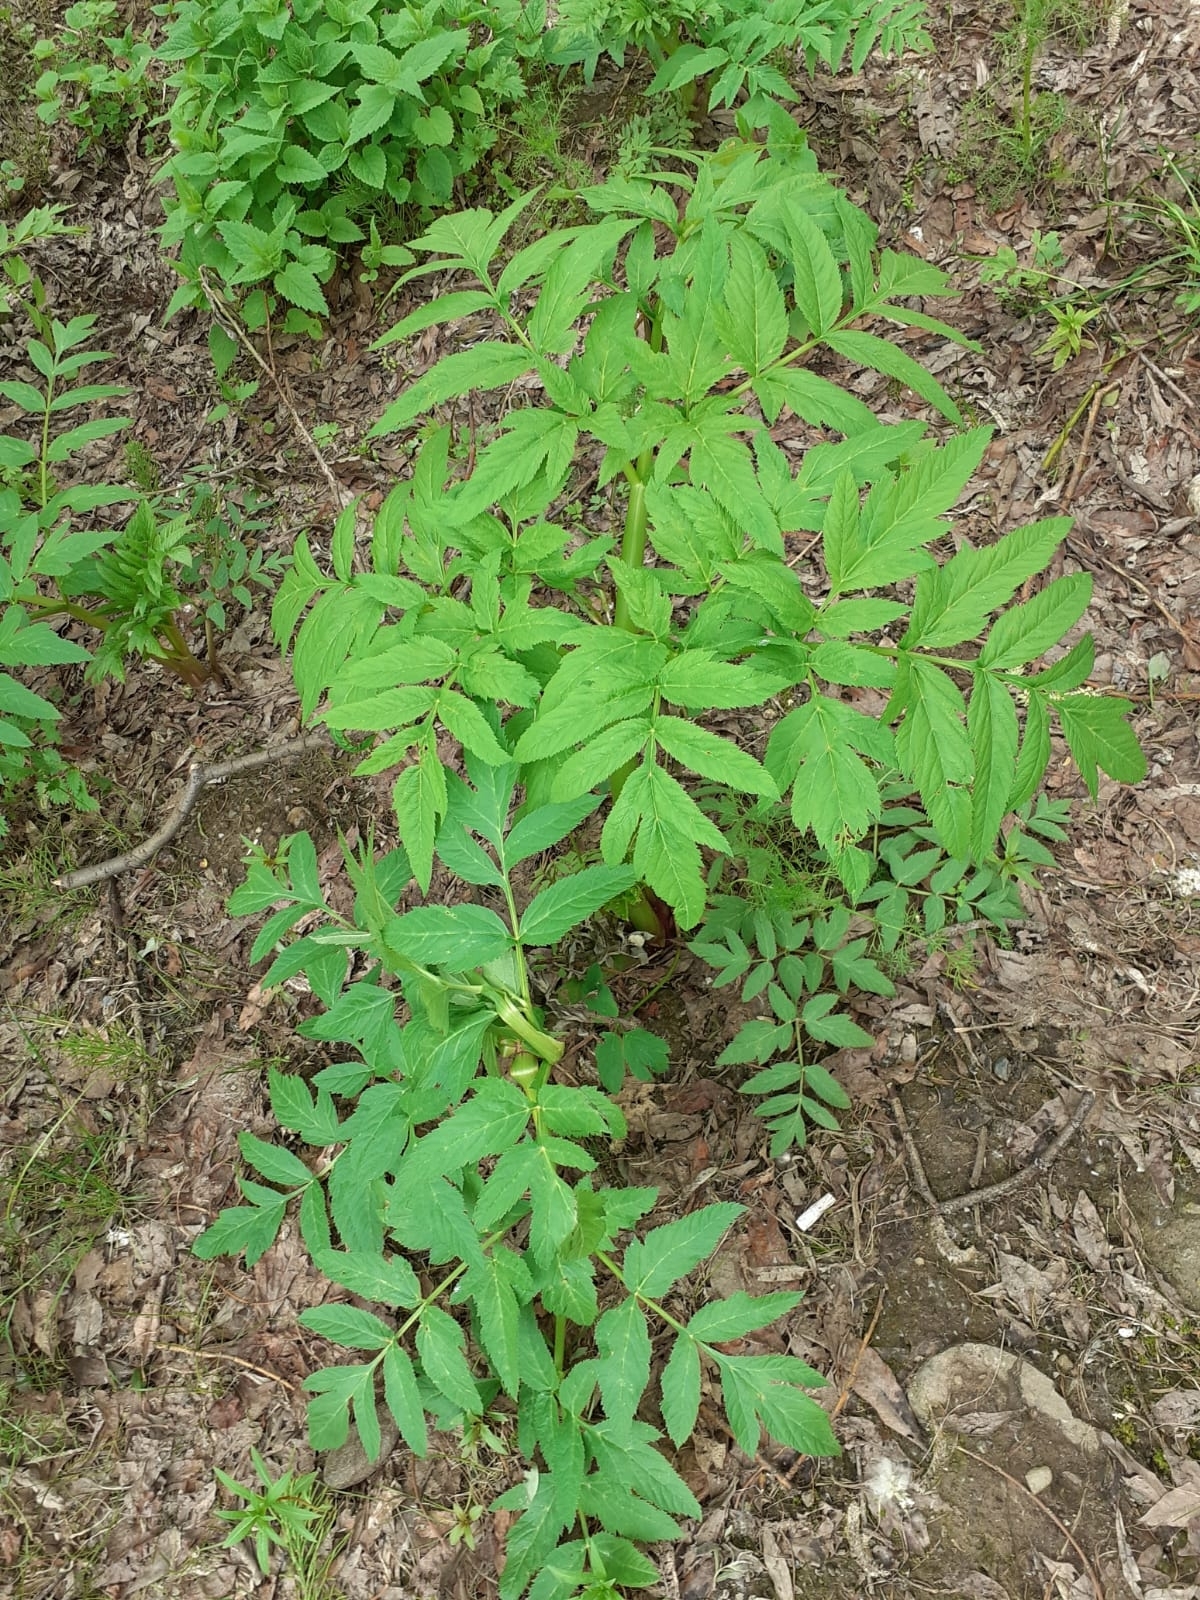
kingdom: Plantae
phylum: Tracheophyta
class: Magnoliopsida
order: Apiales
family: Apiaceae
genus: Angelica
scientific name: Angelica sylvestris
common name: Wild angelica
